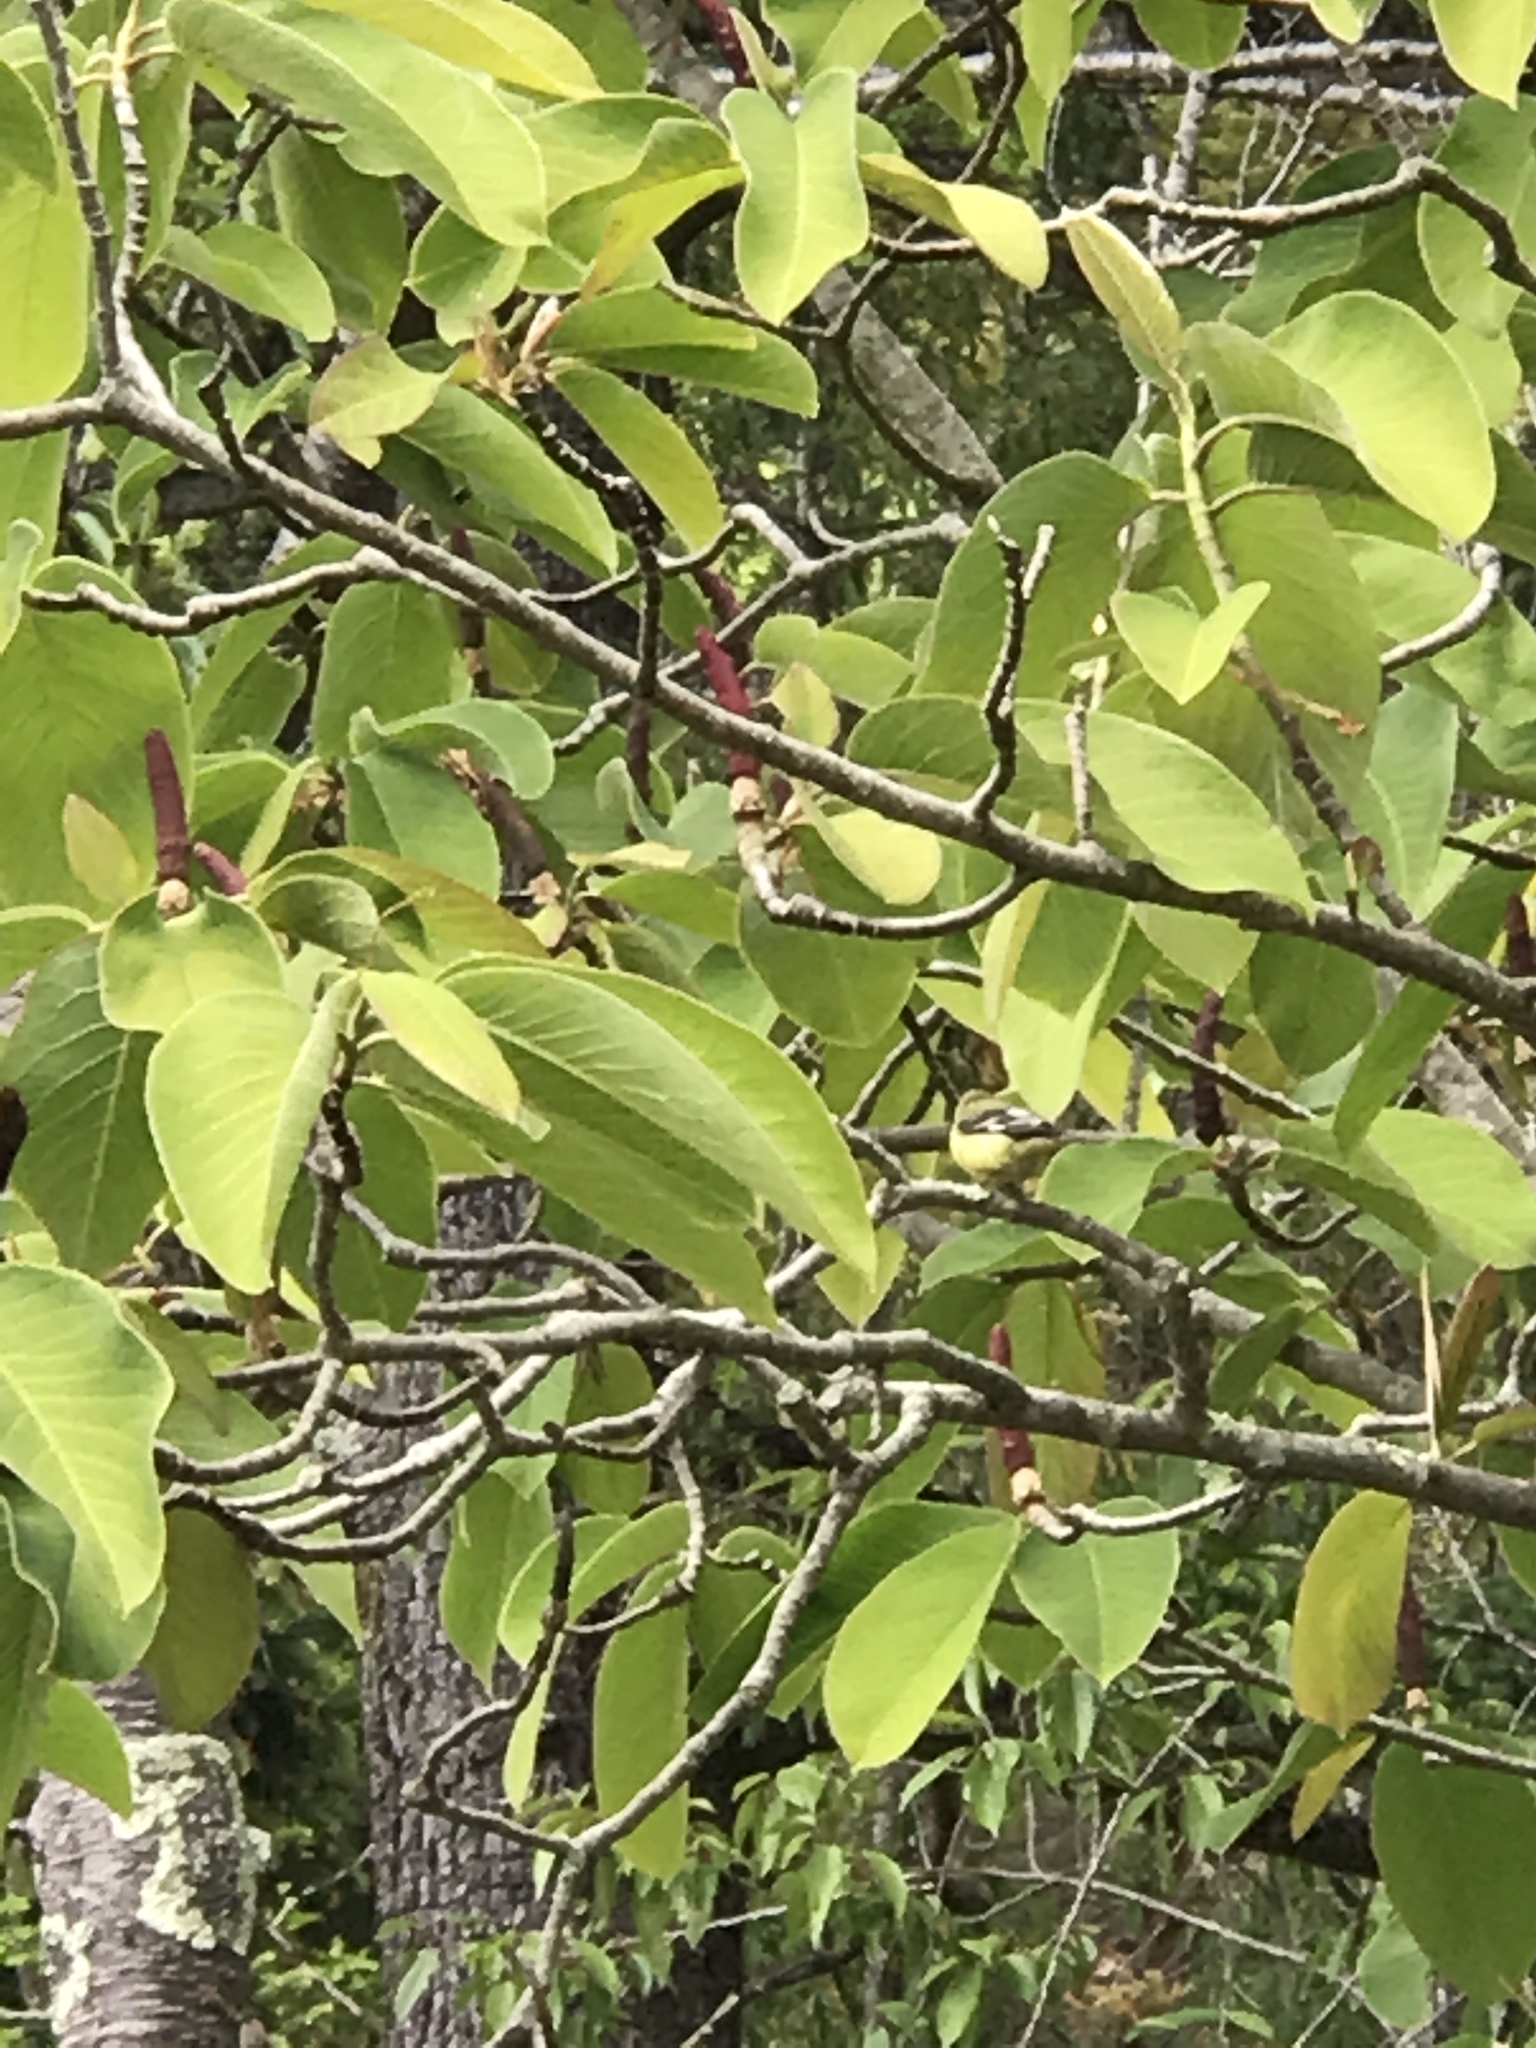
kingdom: Animalia
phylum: Chordata
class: Aves
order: Passeriformes
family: Fringillidae
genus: Spinus
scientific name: Spinus psaltria
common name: Lesser goldfinch
